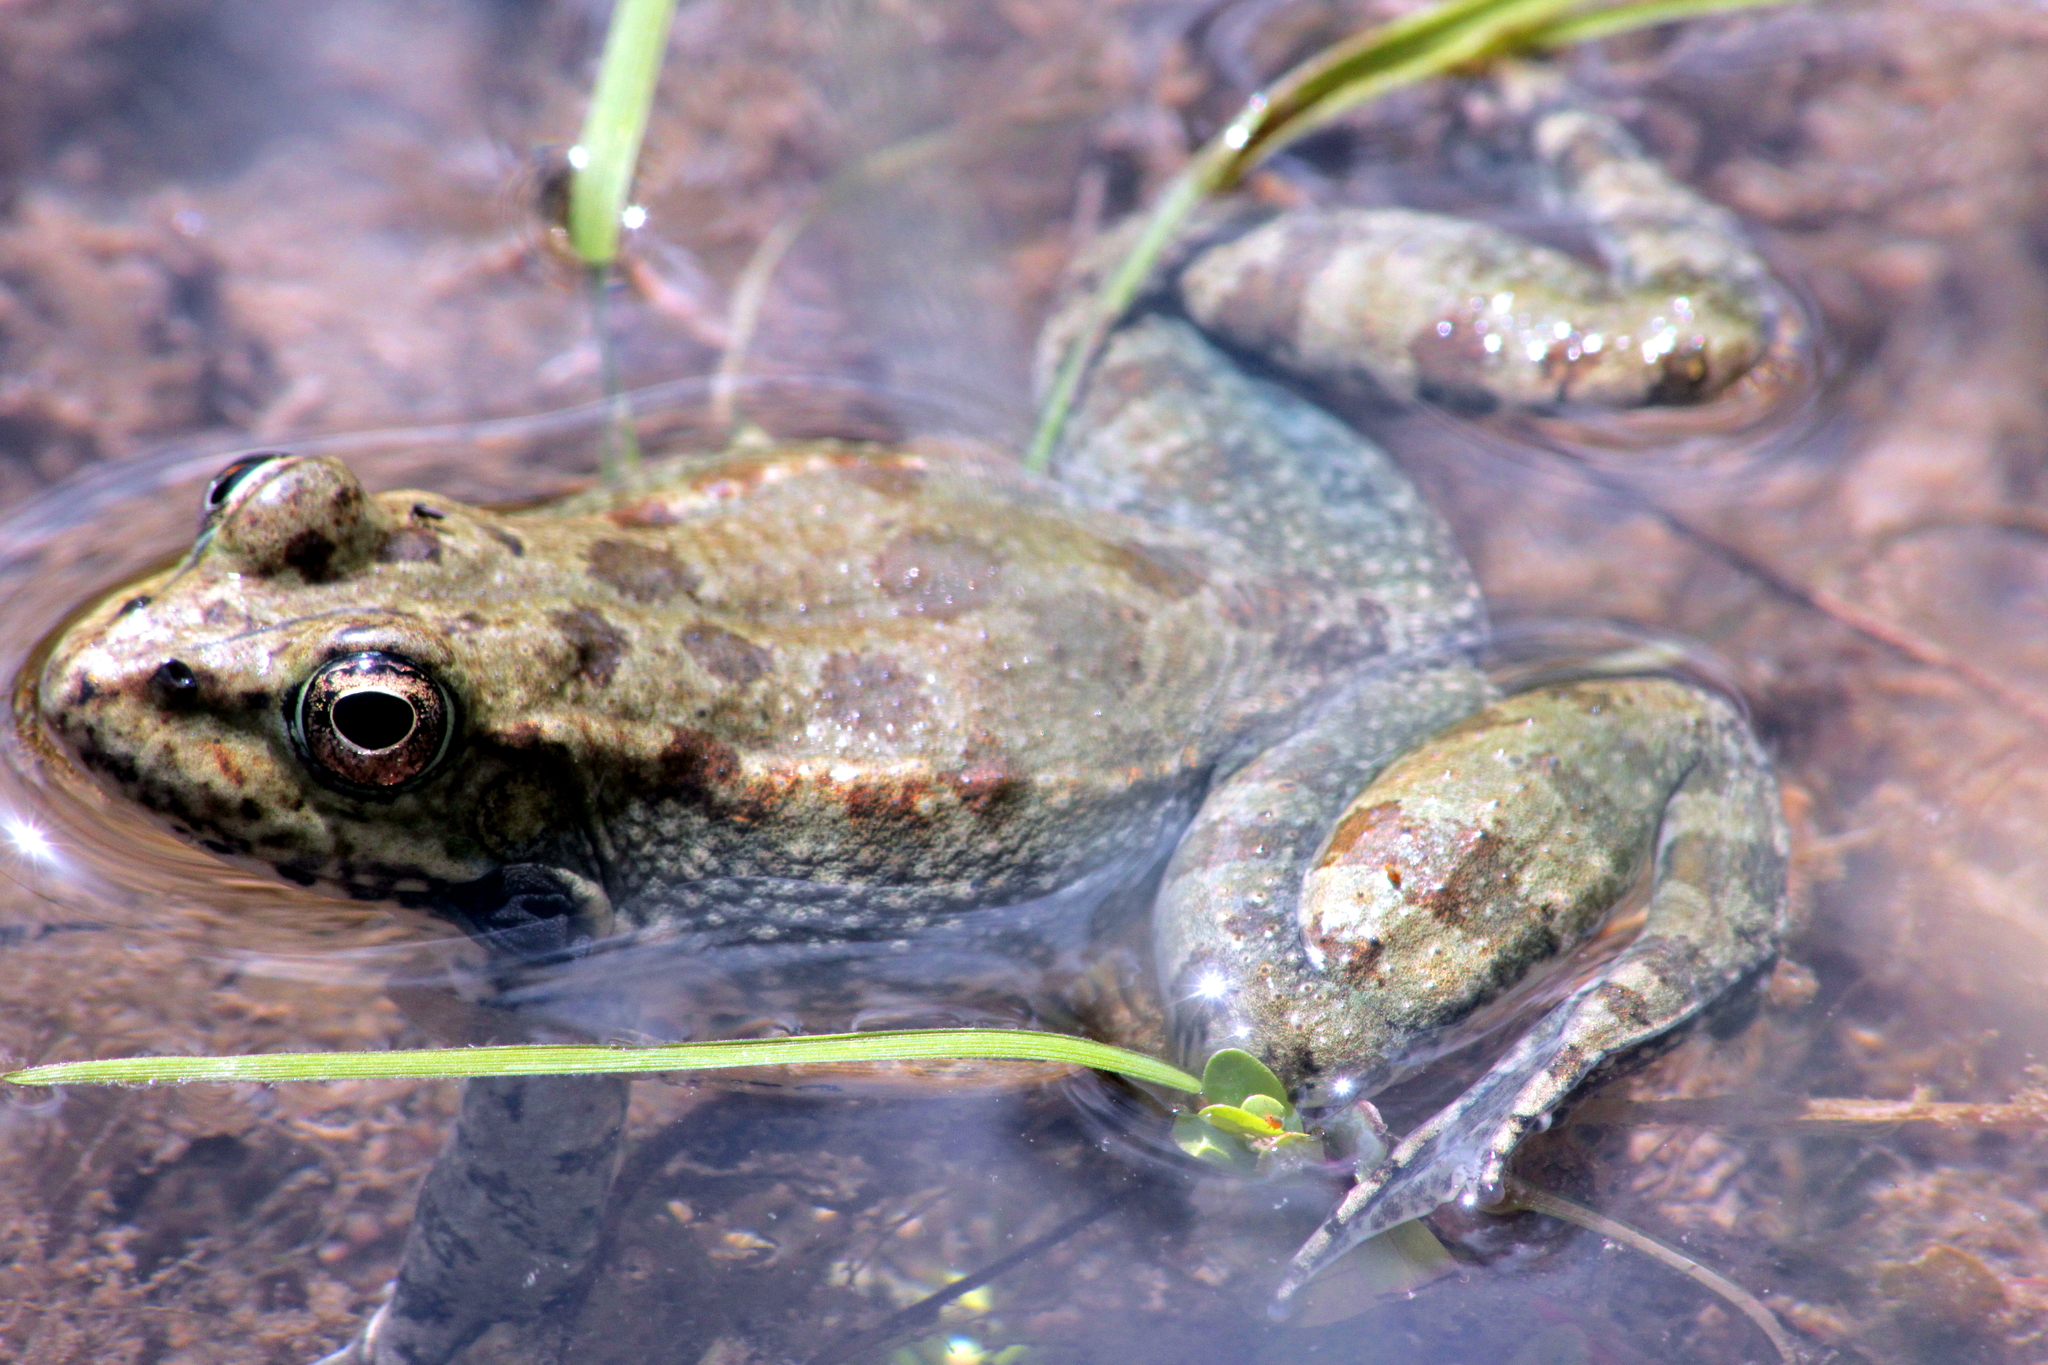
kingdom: Animalia
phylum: Chordata
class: Amphibia
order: Anura
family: Ranidae
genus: Pelophylax
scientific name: Pelophylax ridibundus
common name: Marsh frog
